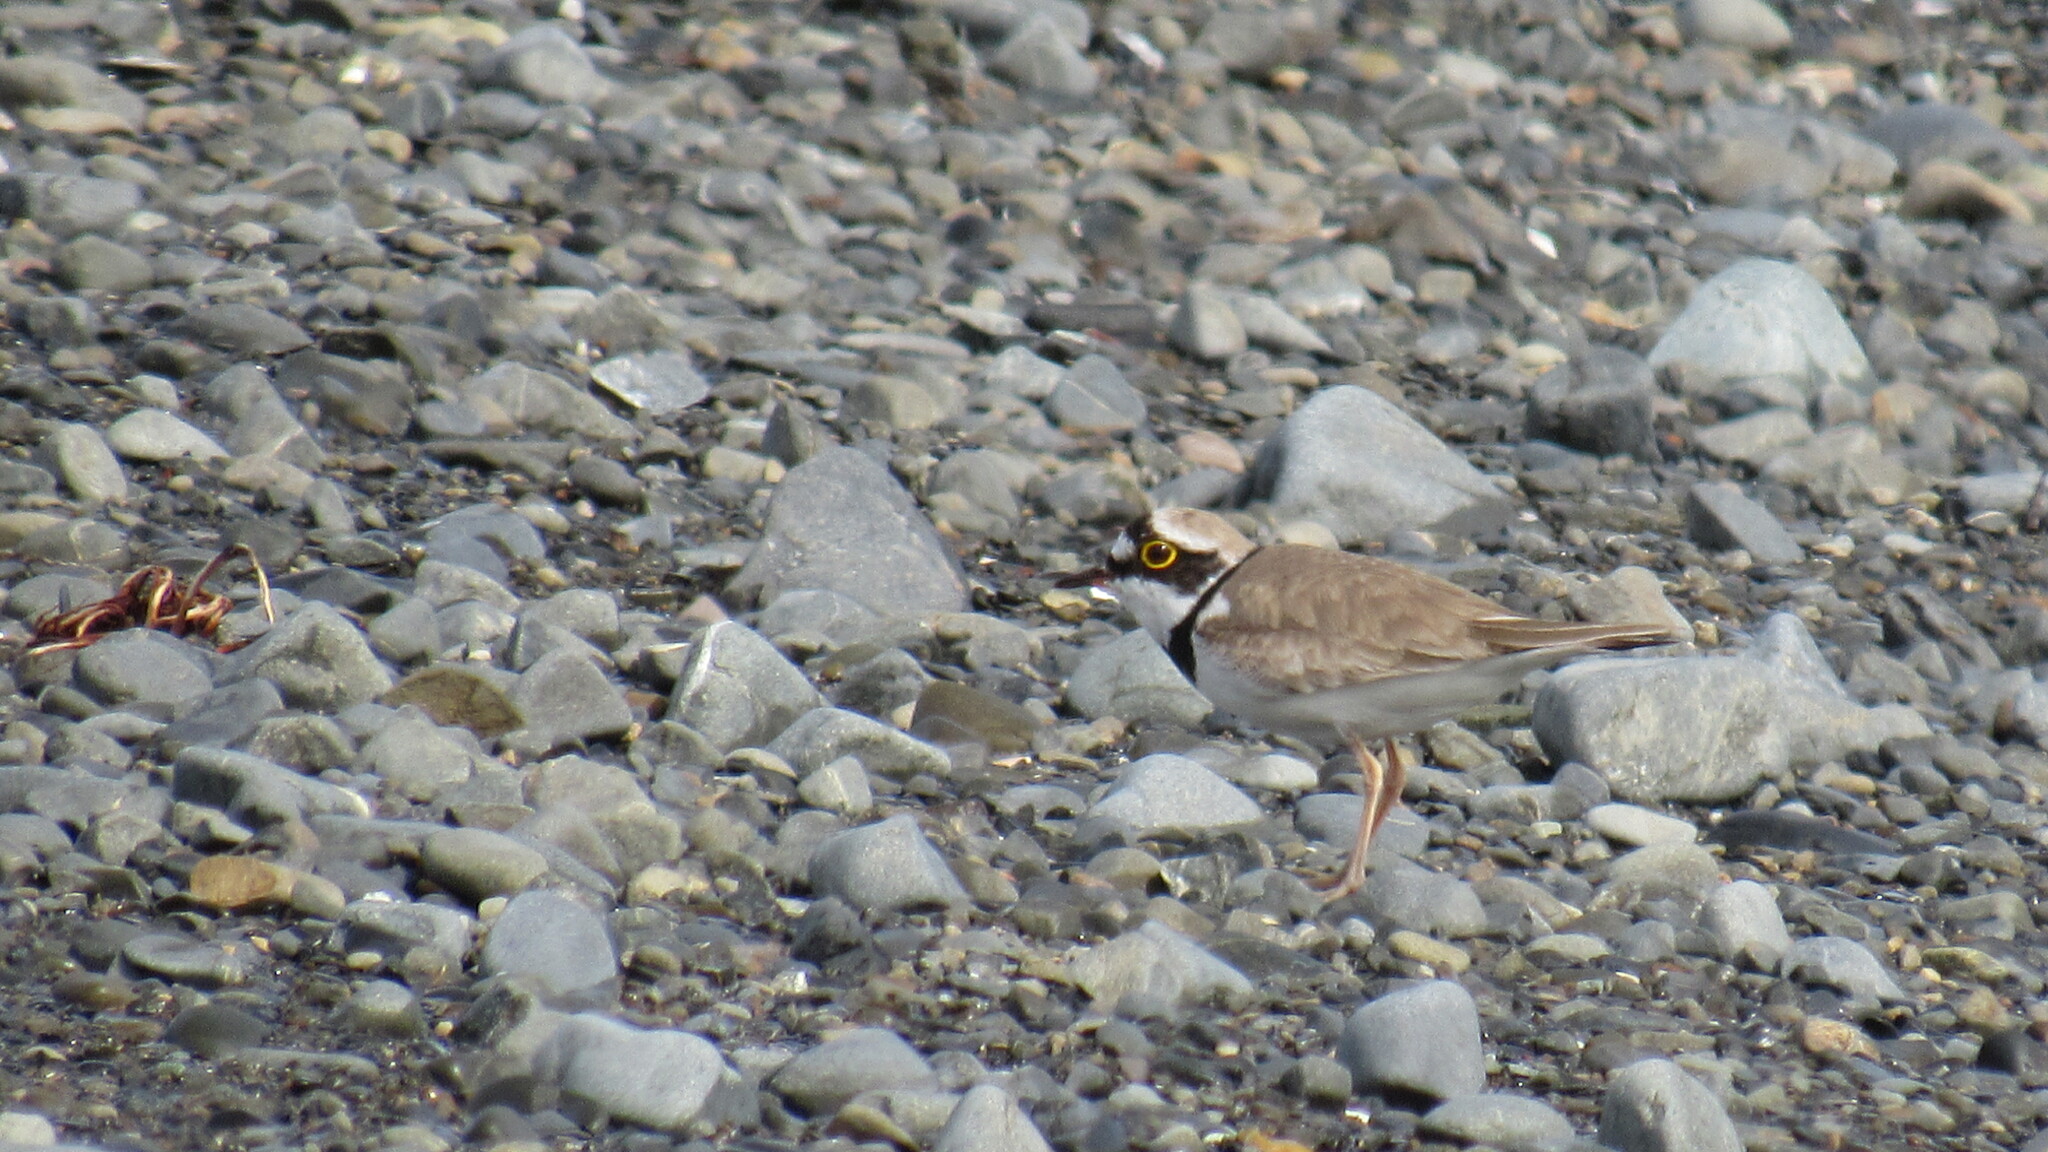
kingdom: Animalia
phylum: Chordata
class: Aves
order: Charadriiformes
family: Charadriidae
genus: Charadrius
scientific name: Charadrius dubius
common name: Little ringed plover
